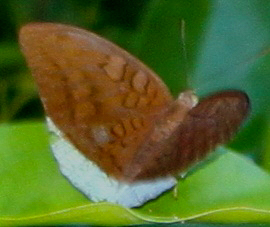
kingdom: Animalia
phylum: Arthropoda
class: Insecta
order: Lepidoptera
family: Nymphalidae
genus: Tanaecia
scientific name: Tanaecia julii
